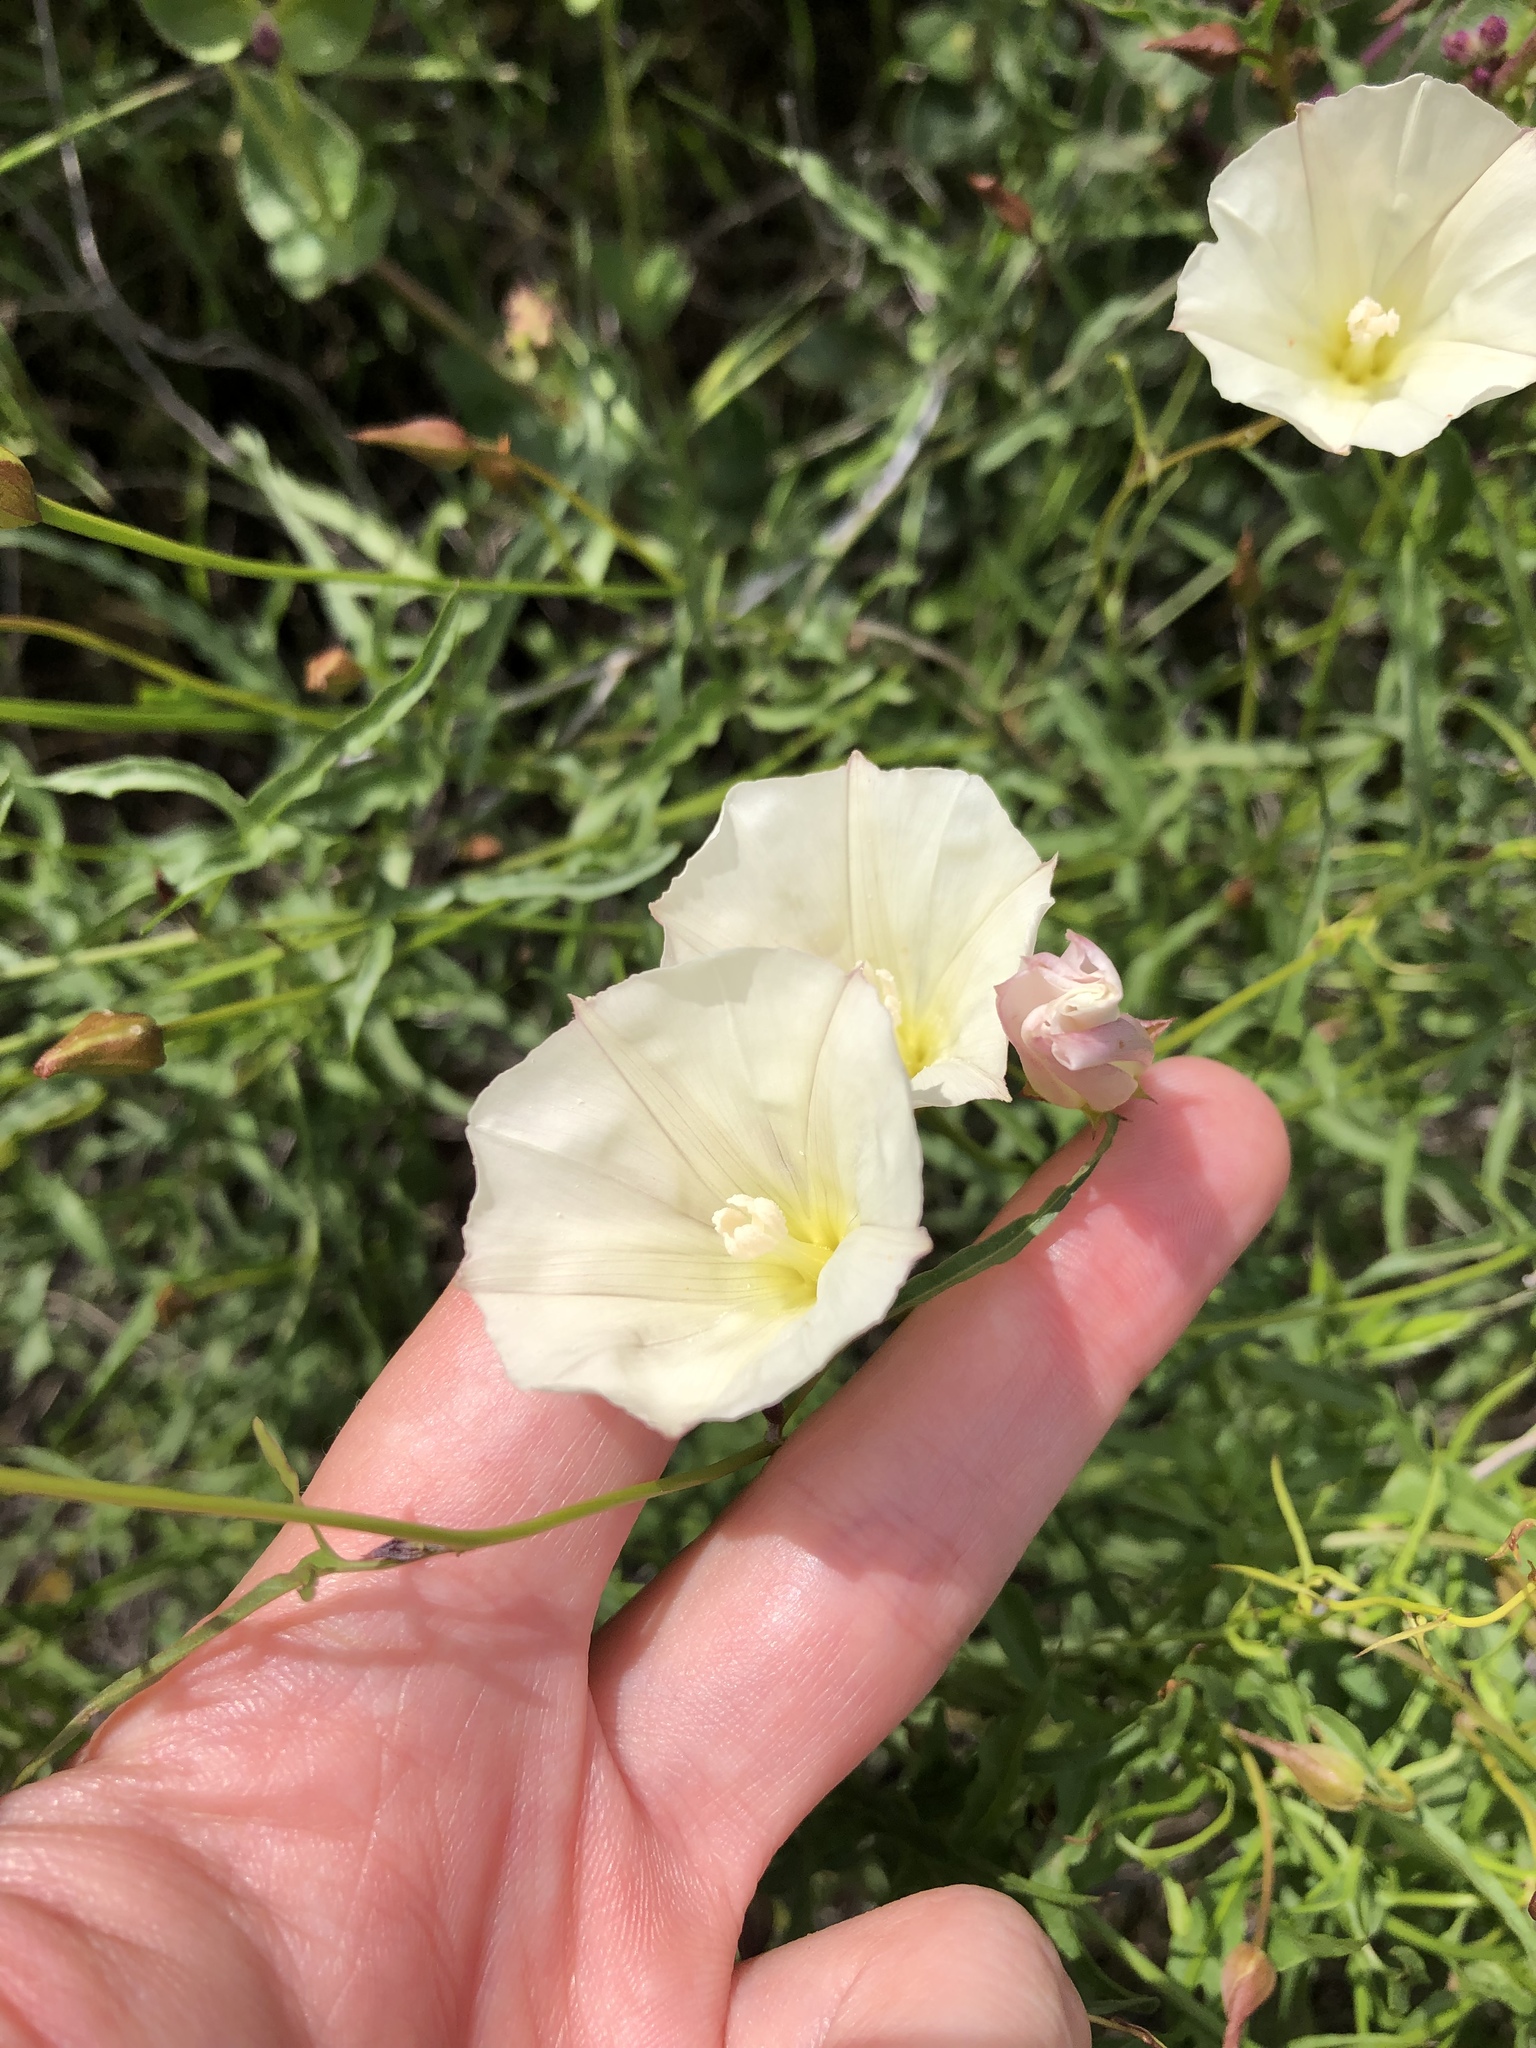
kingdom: Plantae
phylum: Tracheophyta
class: Magnoliopsida
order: Solanales
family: Convolvulaceae
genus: Calystegia
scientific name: Calystegia macrostegia
